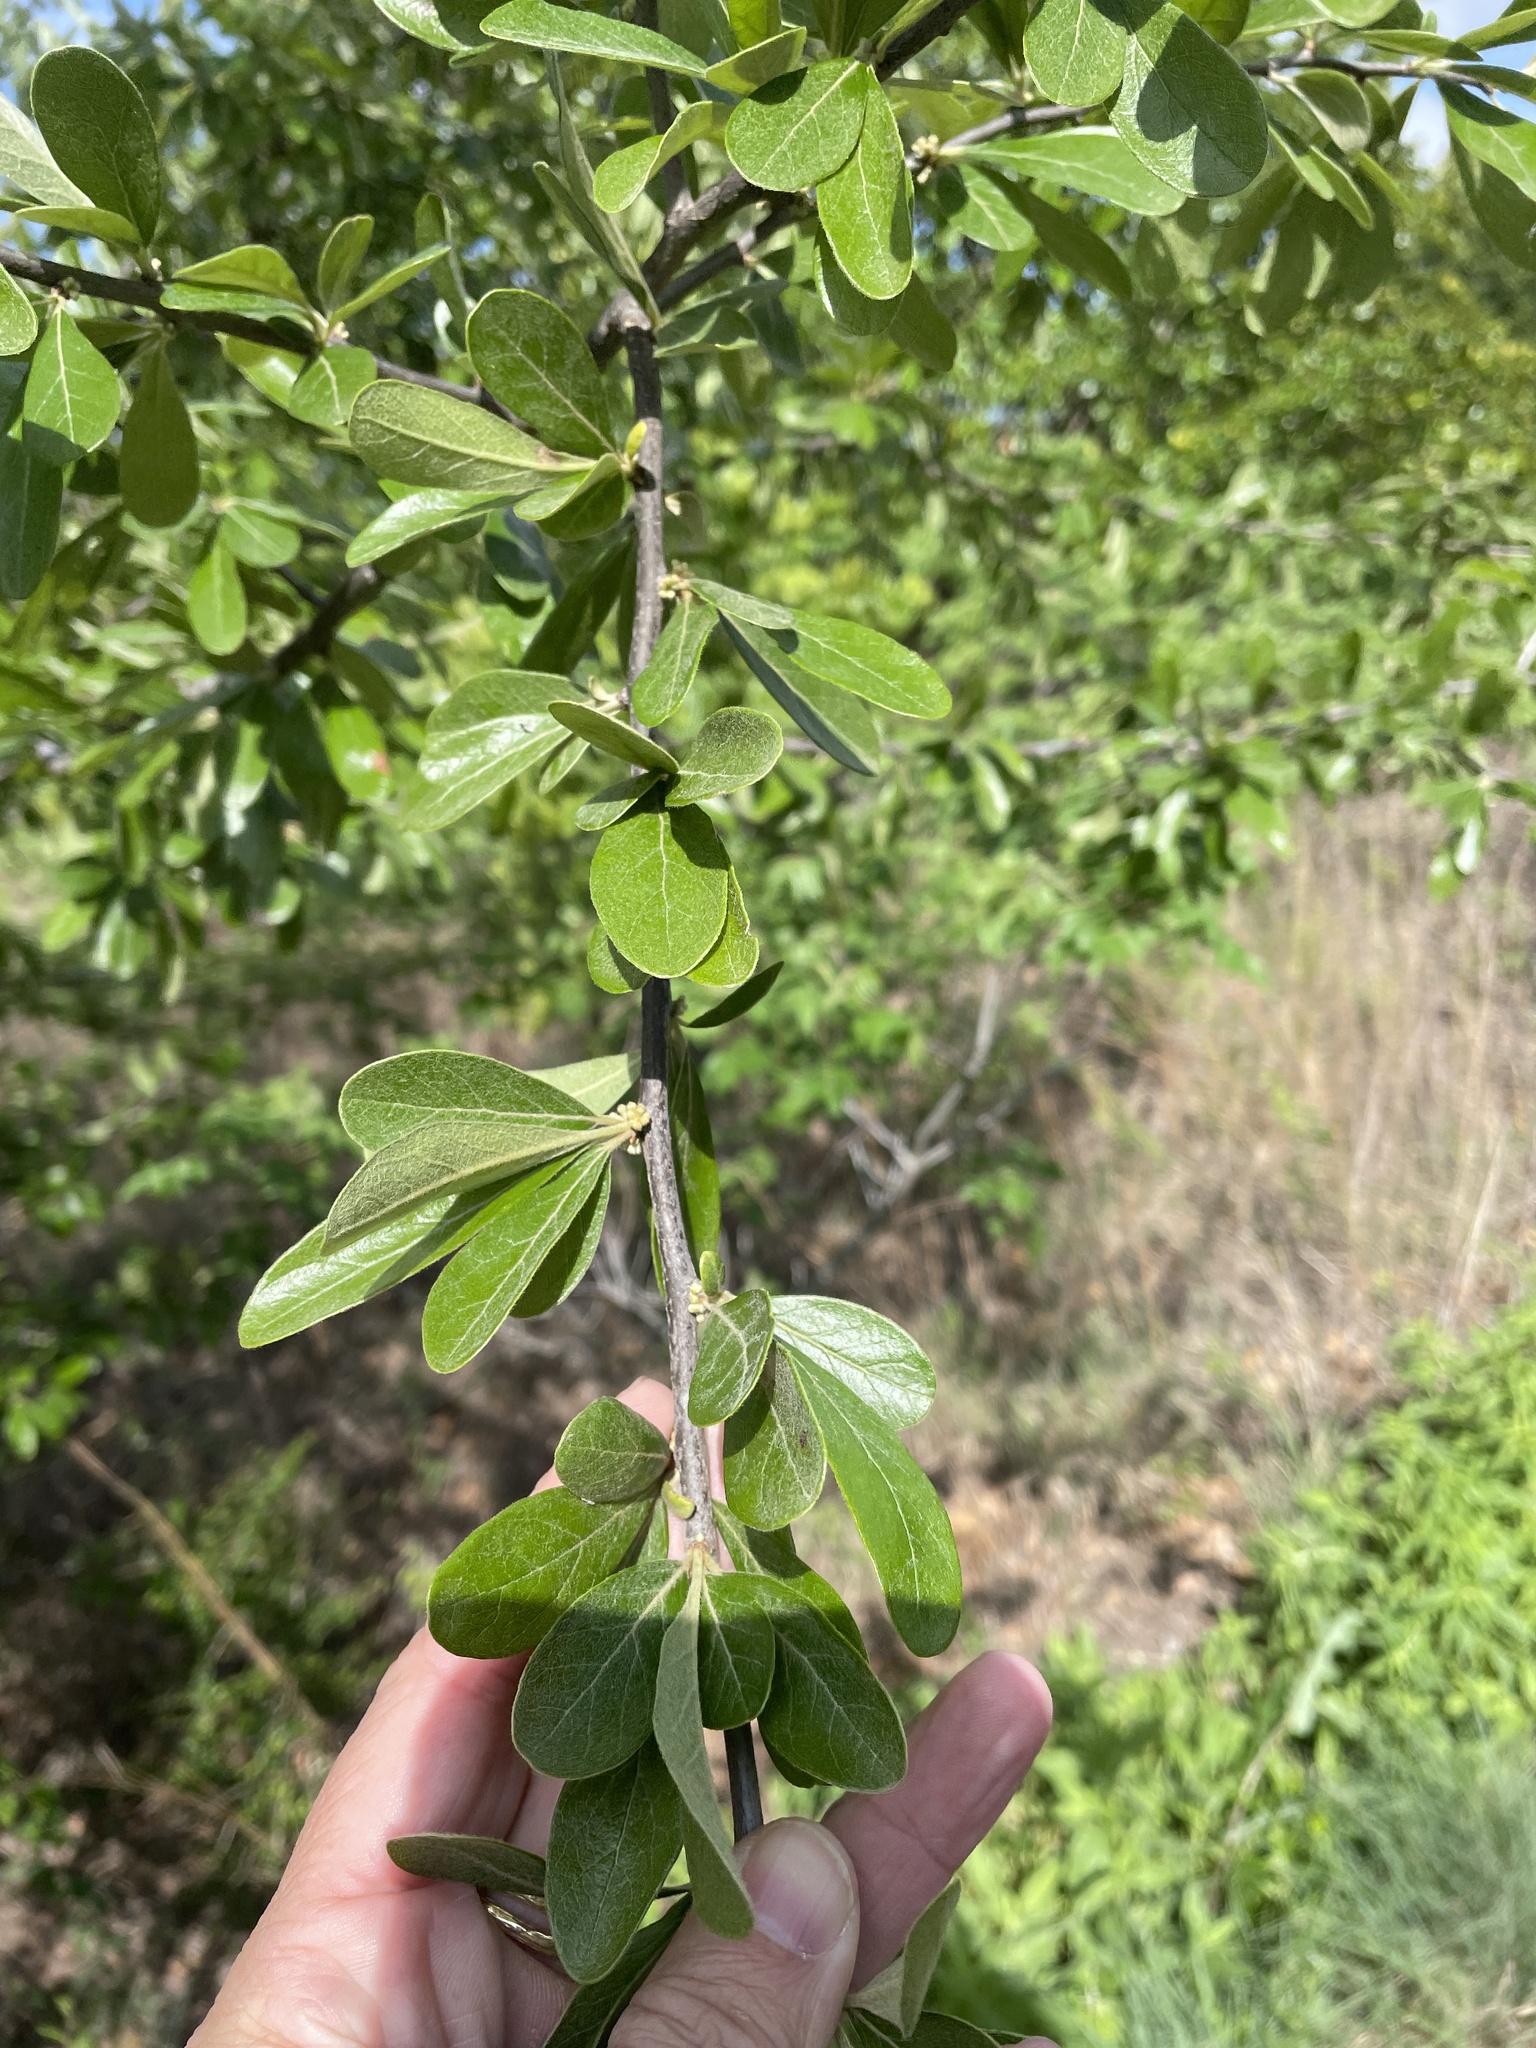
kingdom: Plantae
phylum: Tracheophyta
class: Magnoliopsida
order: Ericales
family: Sapotaceae
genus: Sideroxylon
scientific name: Sideroxylon lanuginosum
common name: Chittamwood
